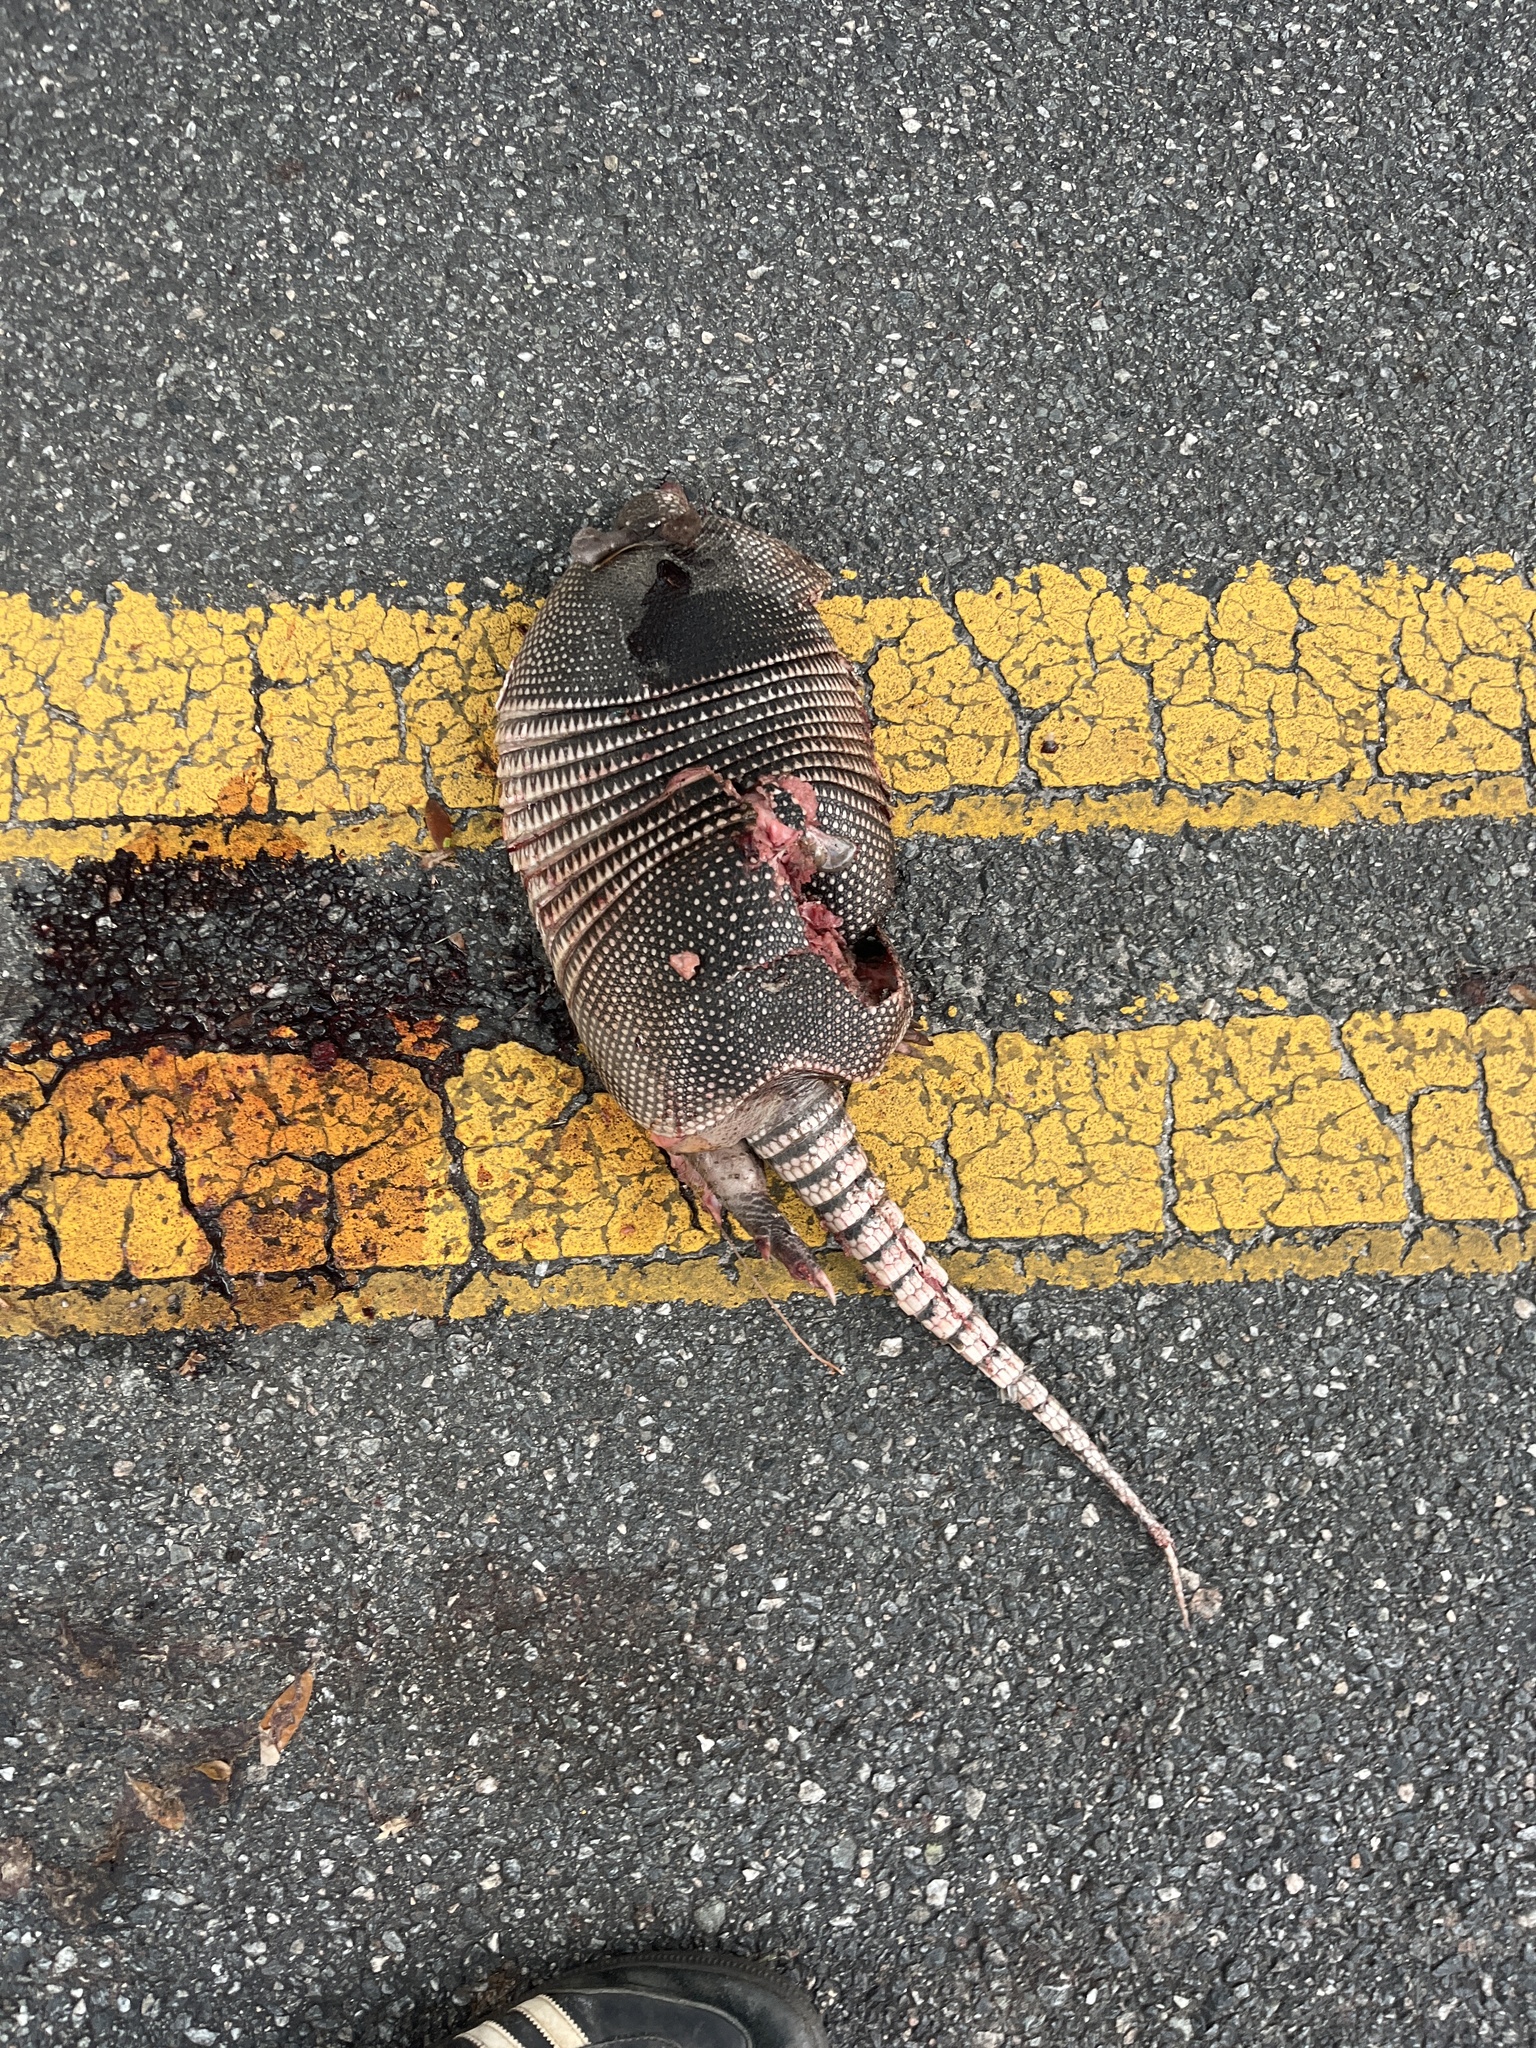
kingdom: Animalia
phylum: Chordata
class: Mammalia
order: Cingulata
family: Dasypodidae
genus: Dasypus
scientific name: Dasypus novemcinctus
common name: Nine-banded armadillo
